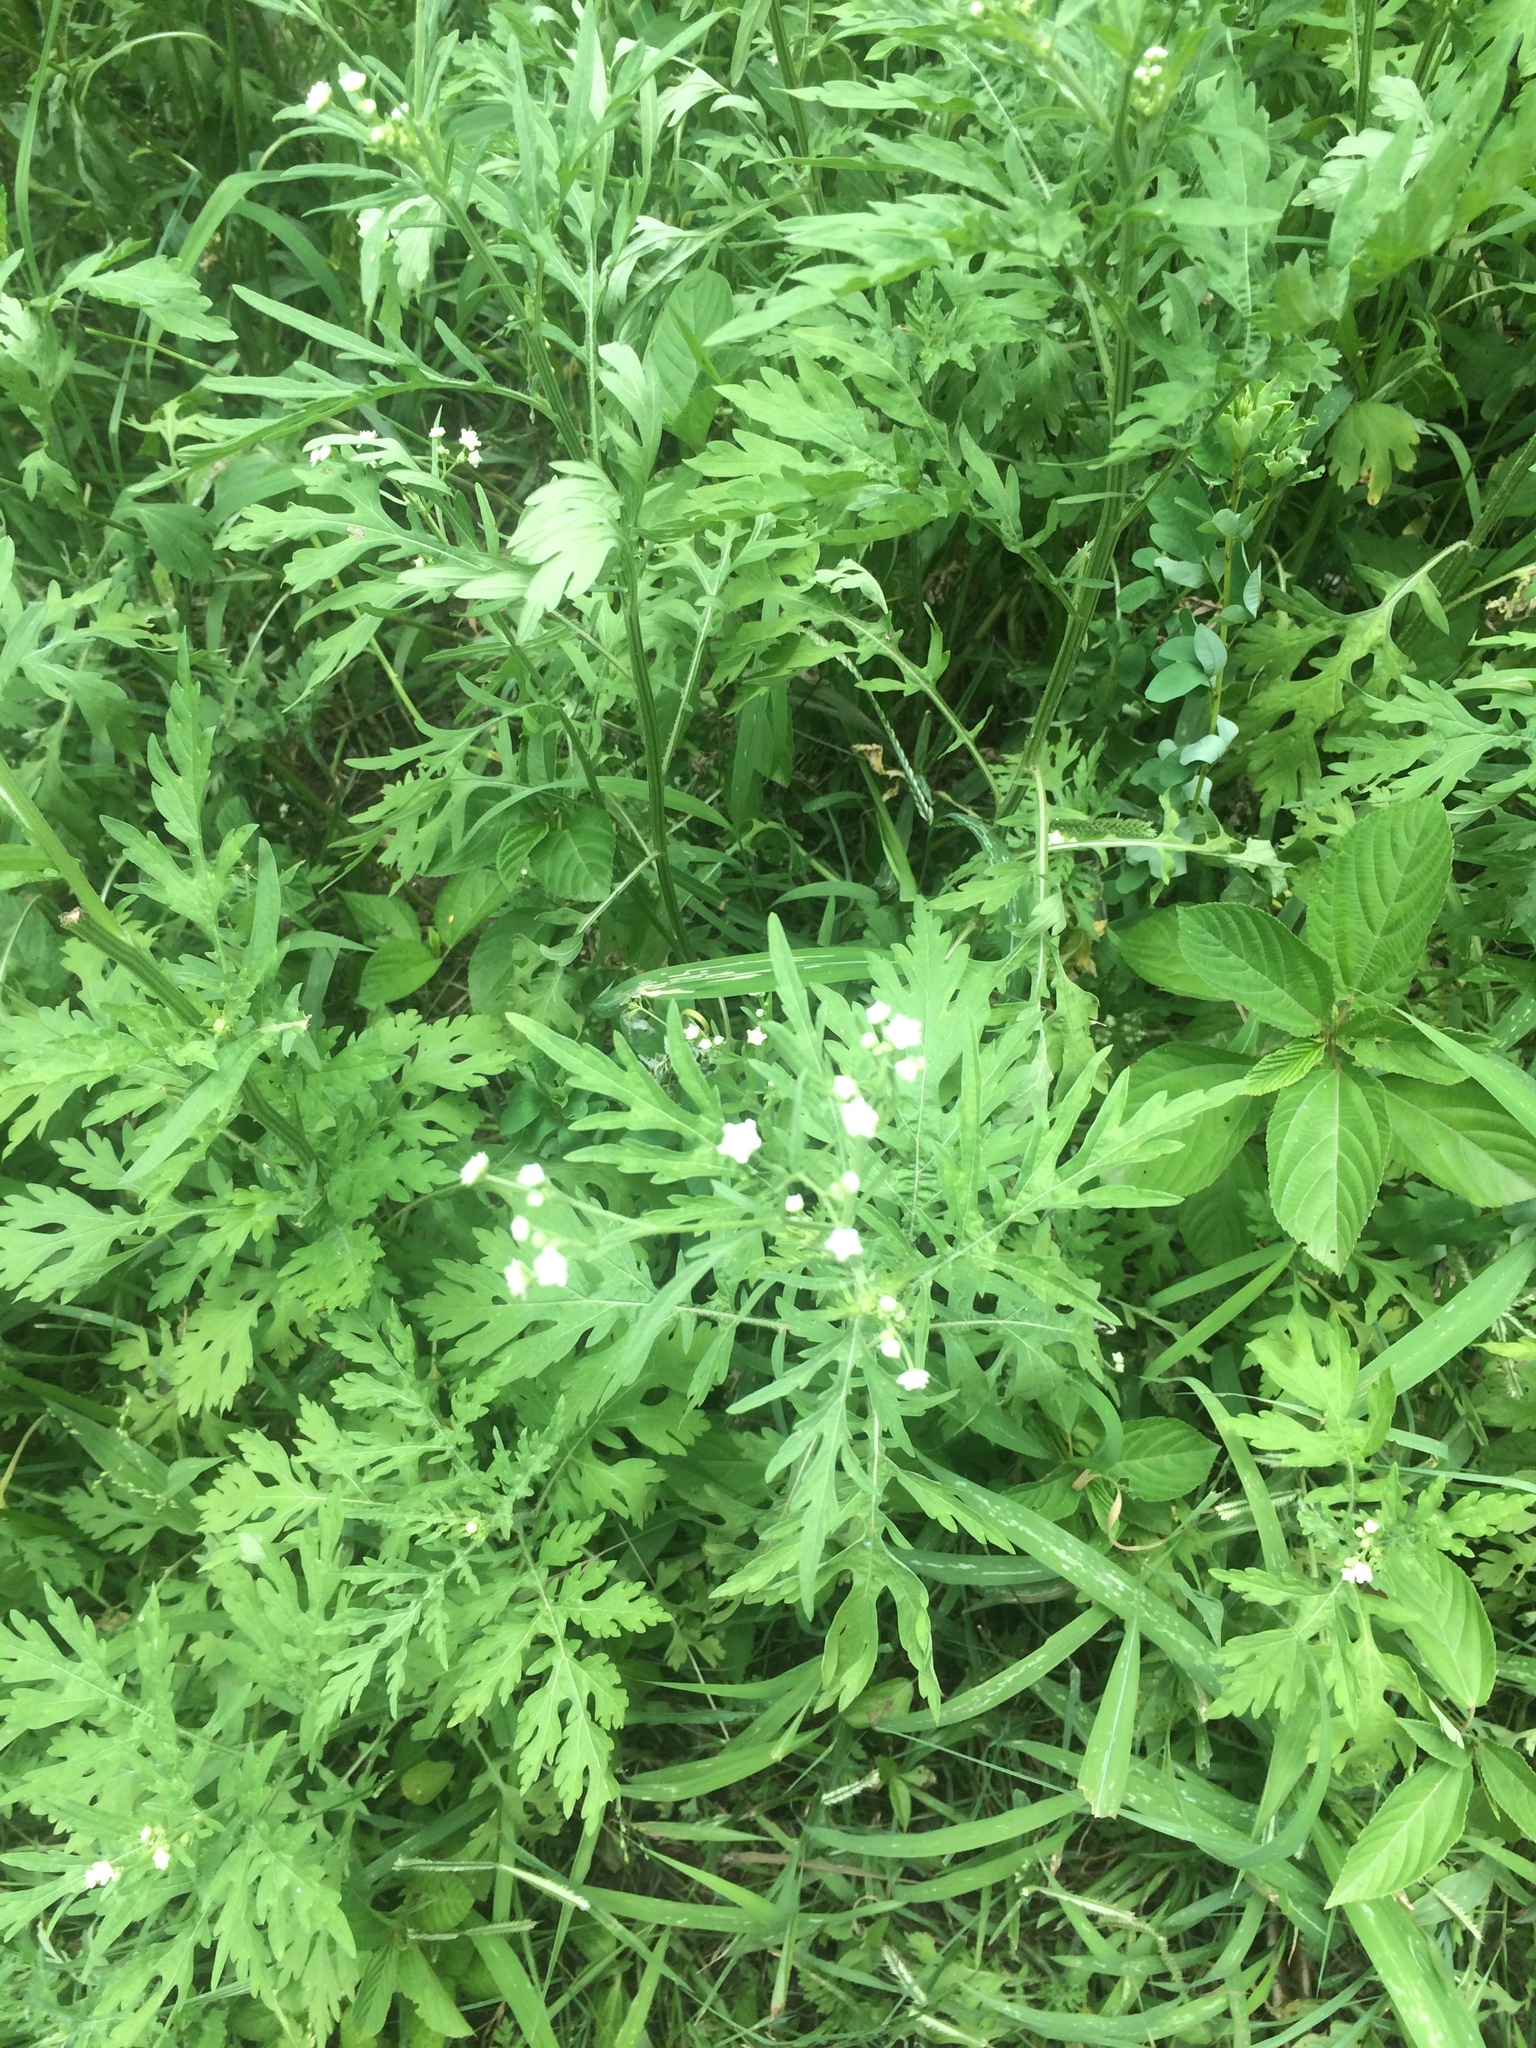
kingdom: Plantae
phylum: Tracheophyta
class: Magnoliopsida
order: Asterales
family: Asteraceae
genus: Parthenium
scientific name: Parthenium hysterophorus
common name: Santa maria feverfew
